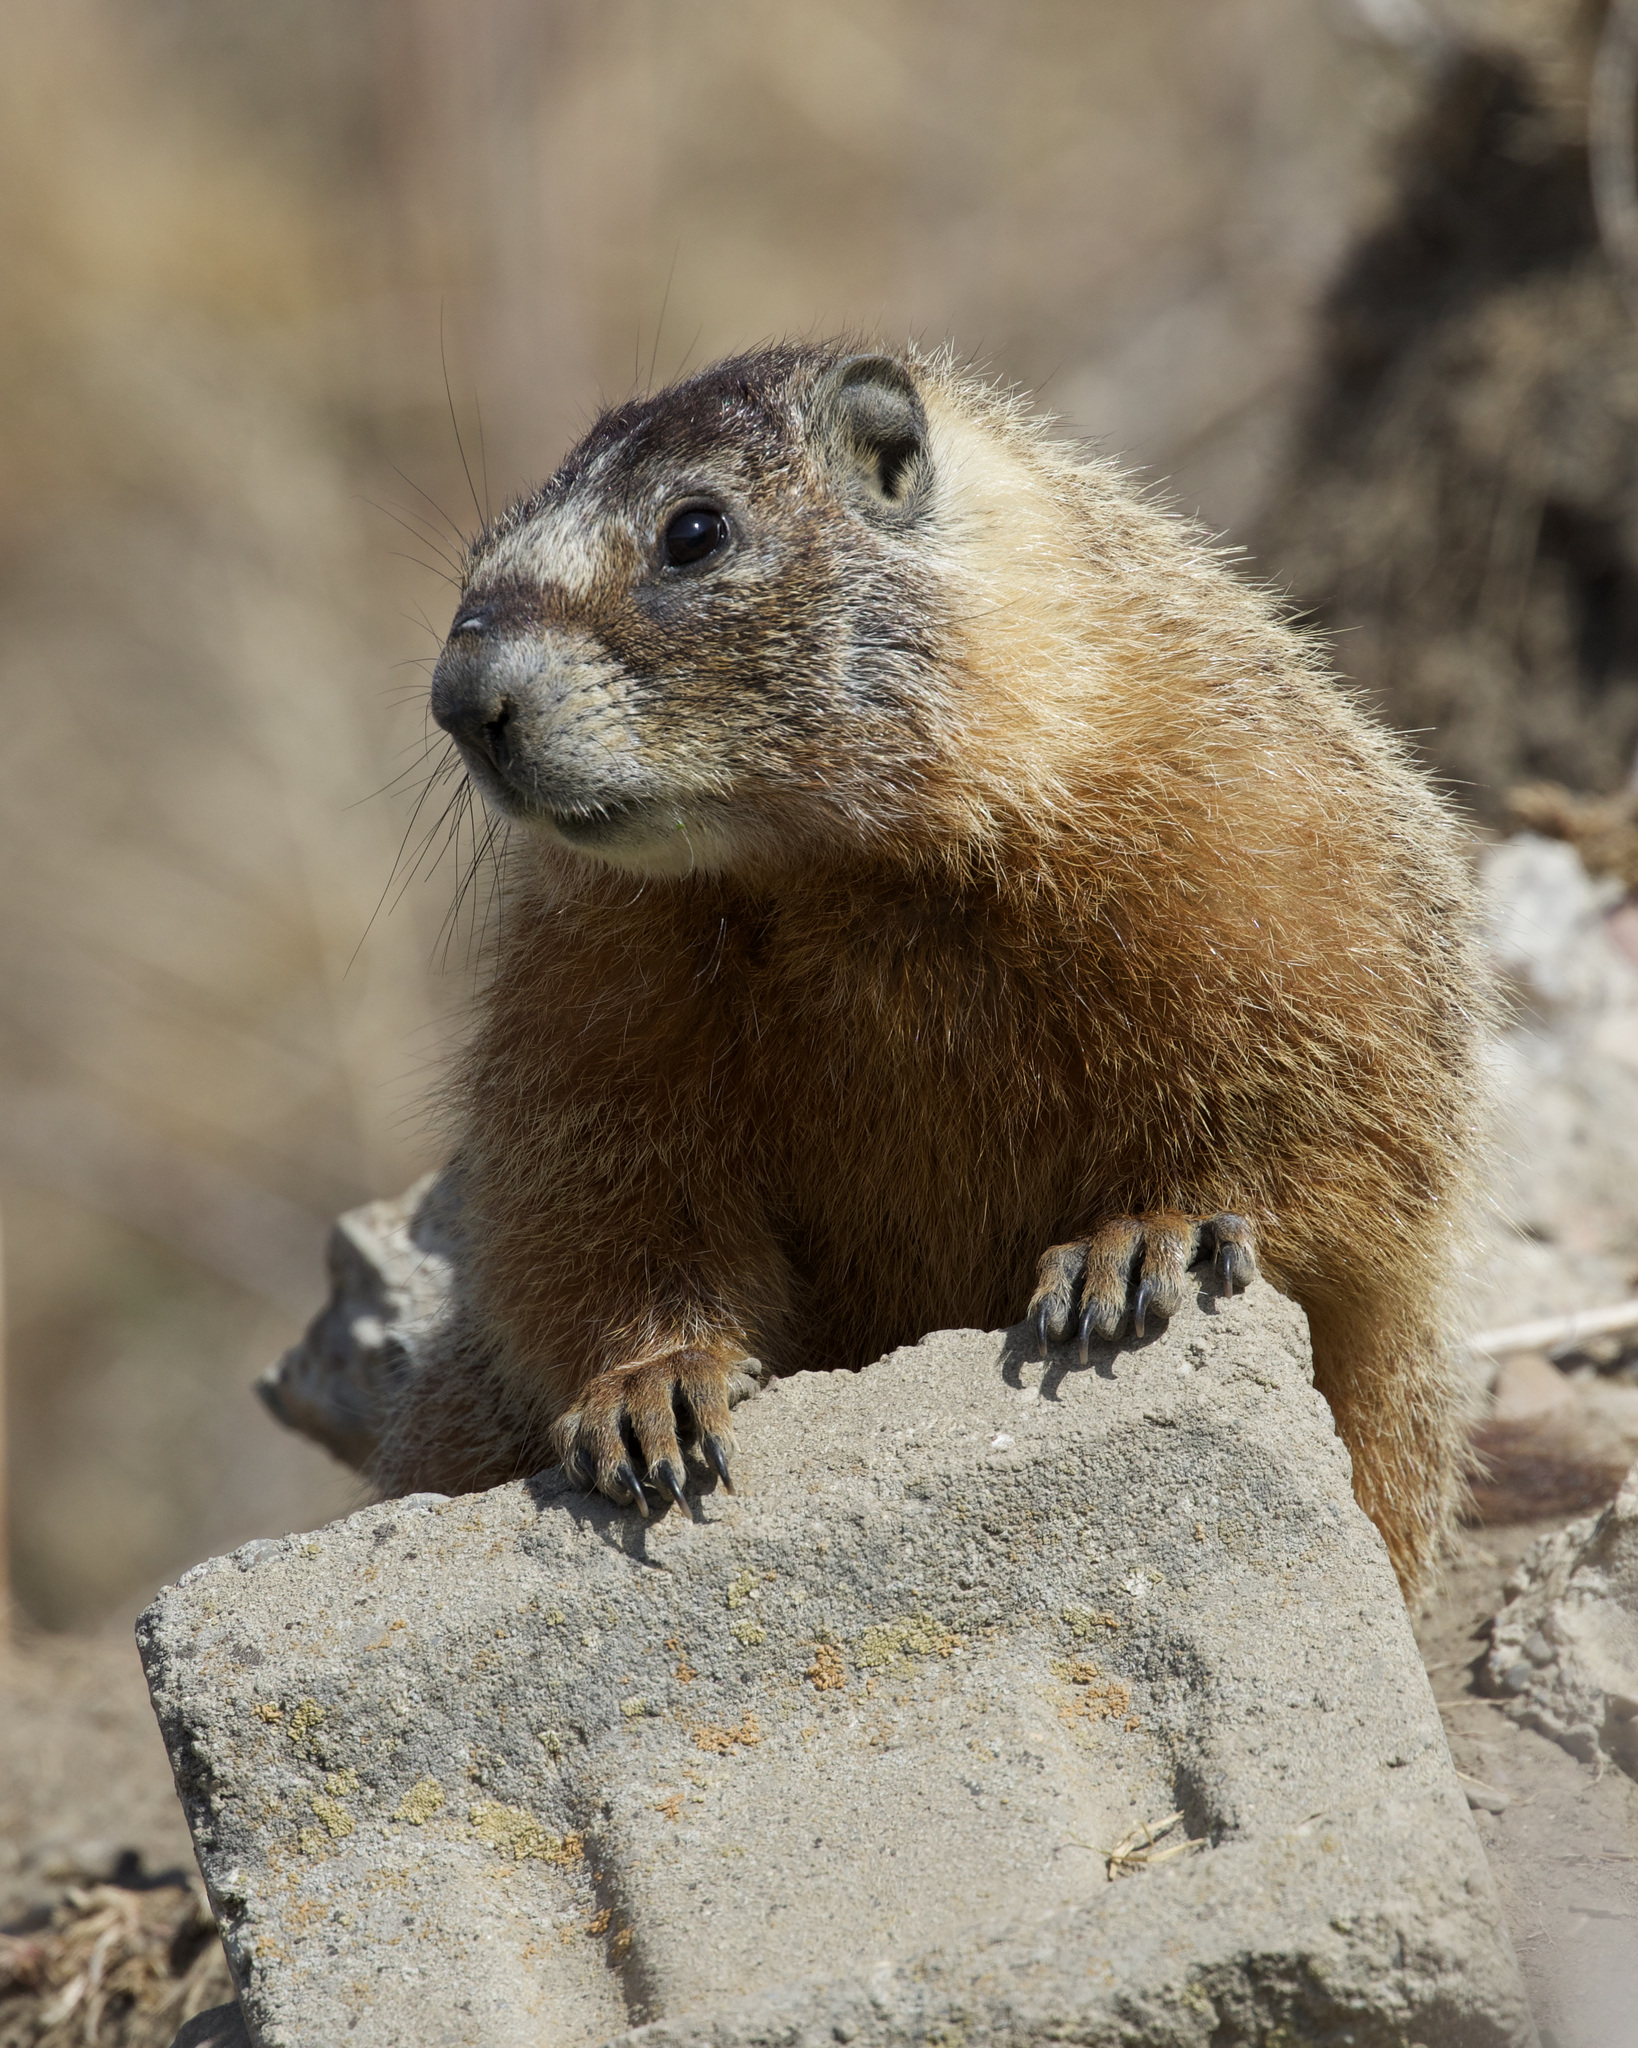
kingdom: Animalia
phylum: Chordata
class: Mammalia
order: Rodentia
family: Sciuridae
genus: Marmota
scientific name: Marmota flaviventris
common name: Yellow-bellied marmot
